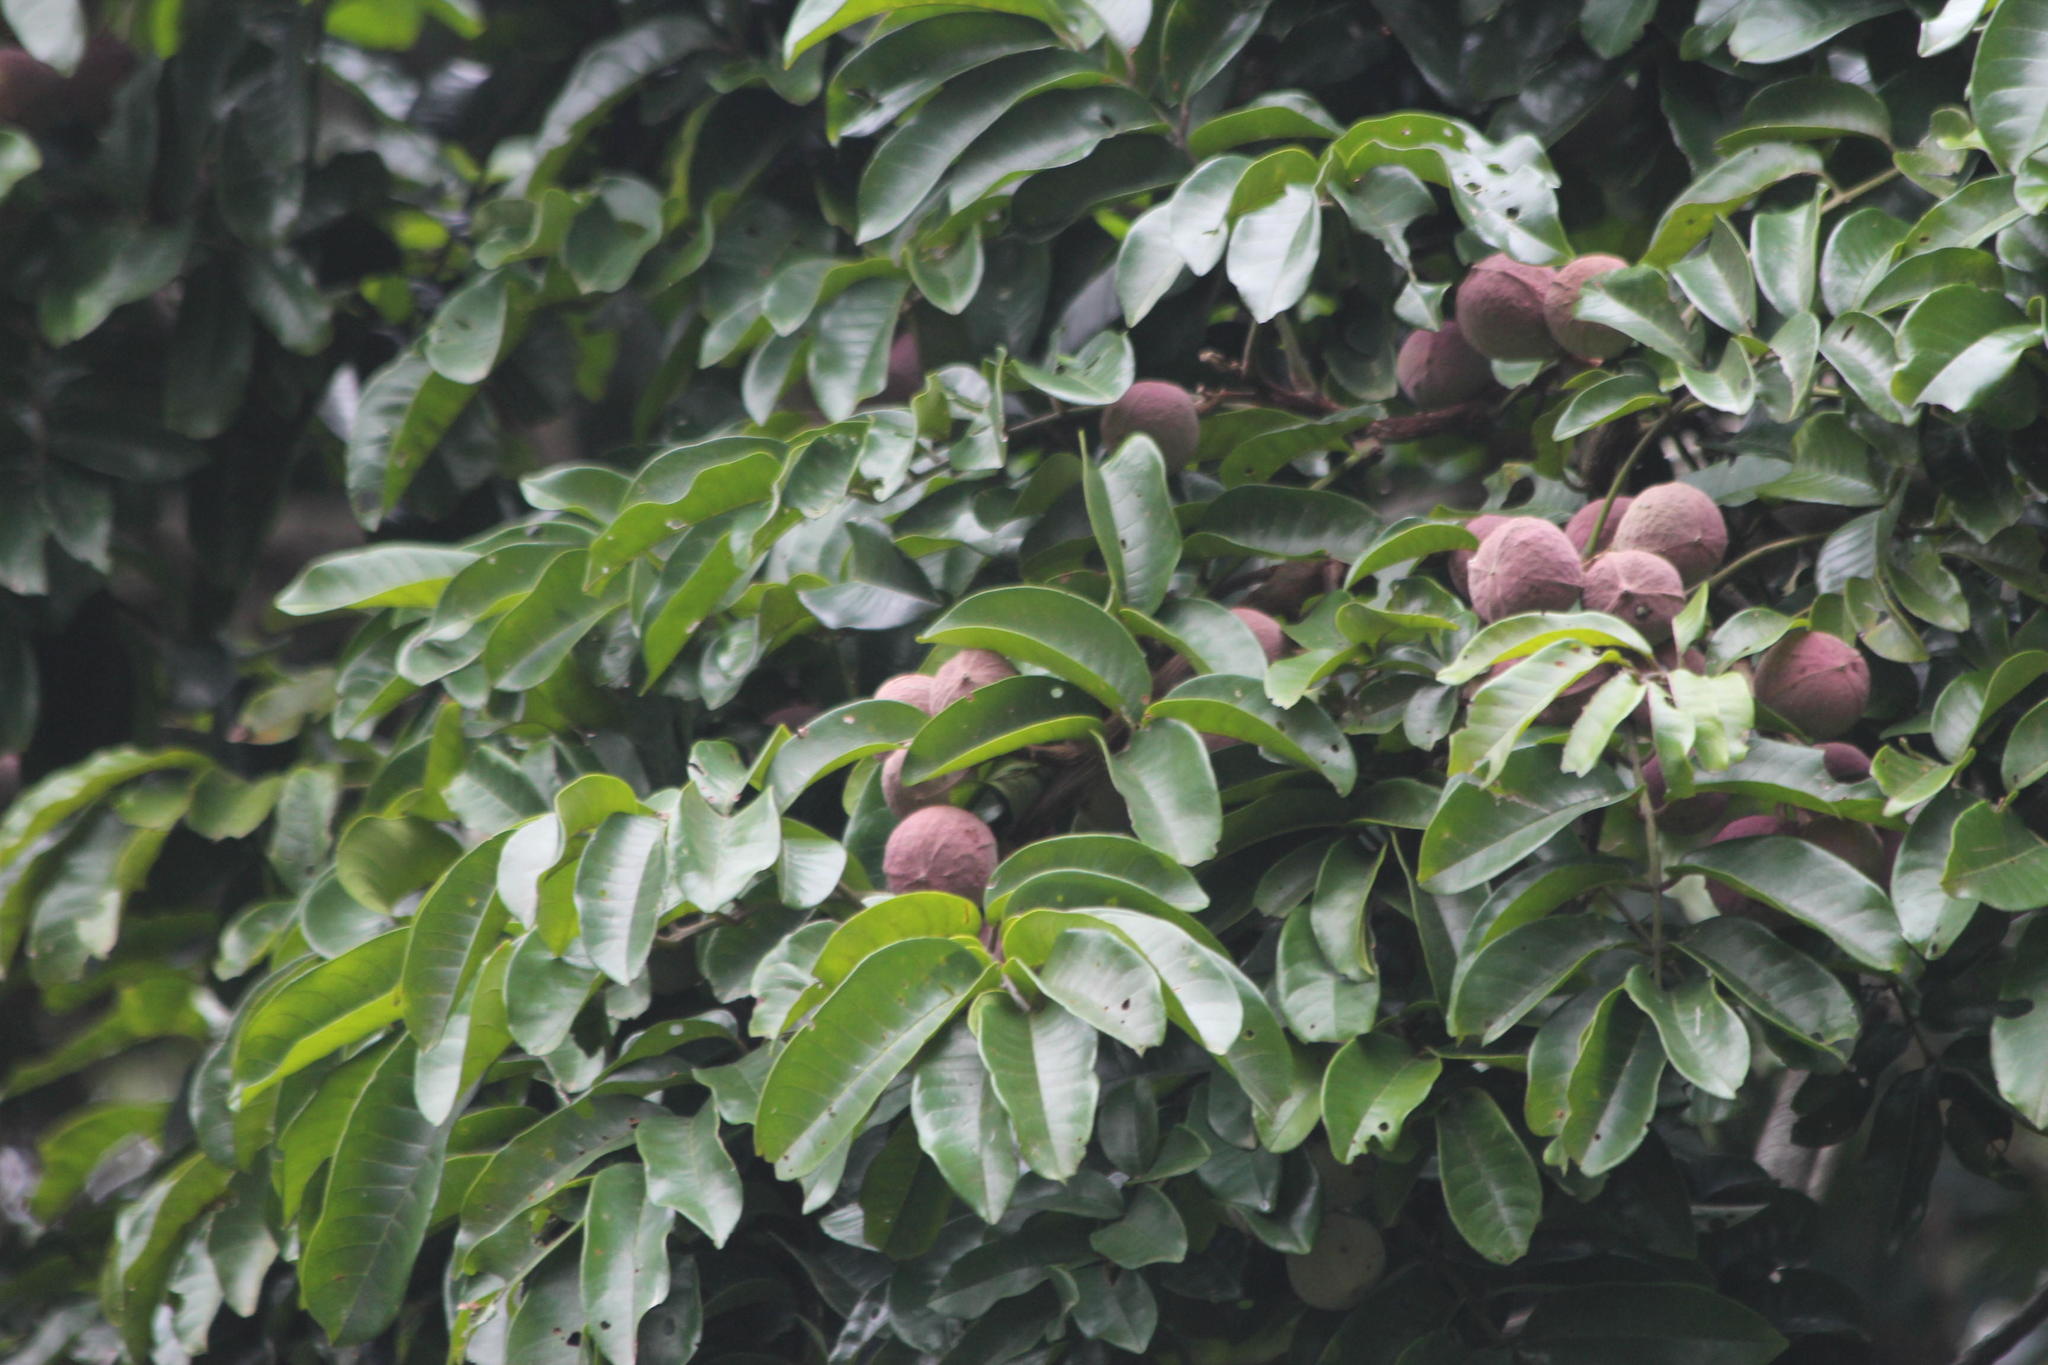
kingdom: Plantae
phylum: Tracheophyta
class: Magnoliopsida
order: Sapindales
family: Meliaceae
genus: Trichilia
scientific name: Trichilia dregeana
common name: Christmas-bells
